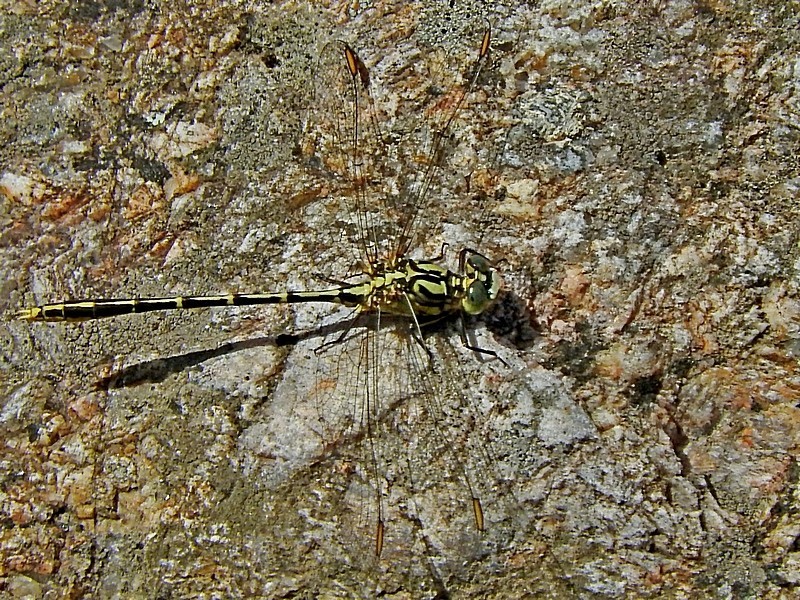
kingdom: Animalia
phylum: Arthropoda
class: Insecta
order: Odonata
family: Gomphidae
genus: Austrogomphus
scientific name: Austrogomphus guerini
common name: Yellow-striped hunter
